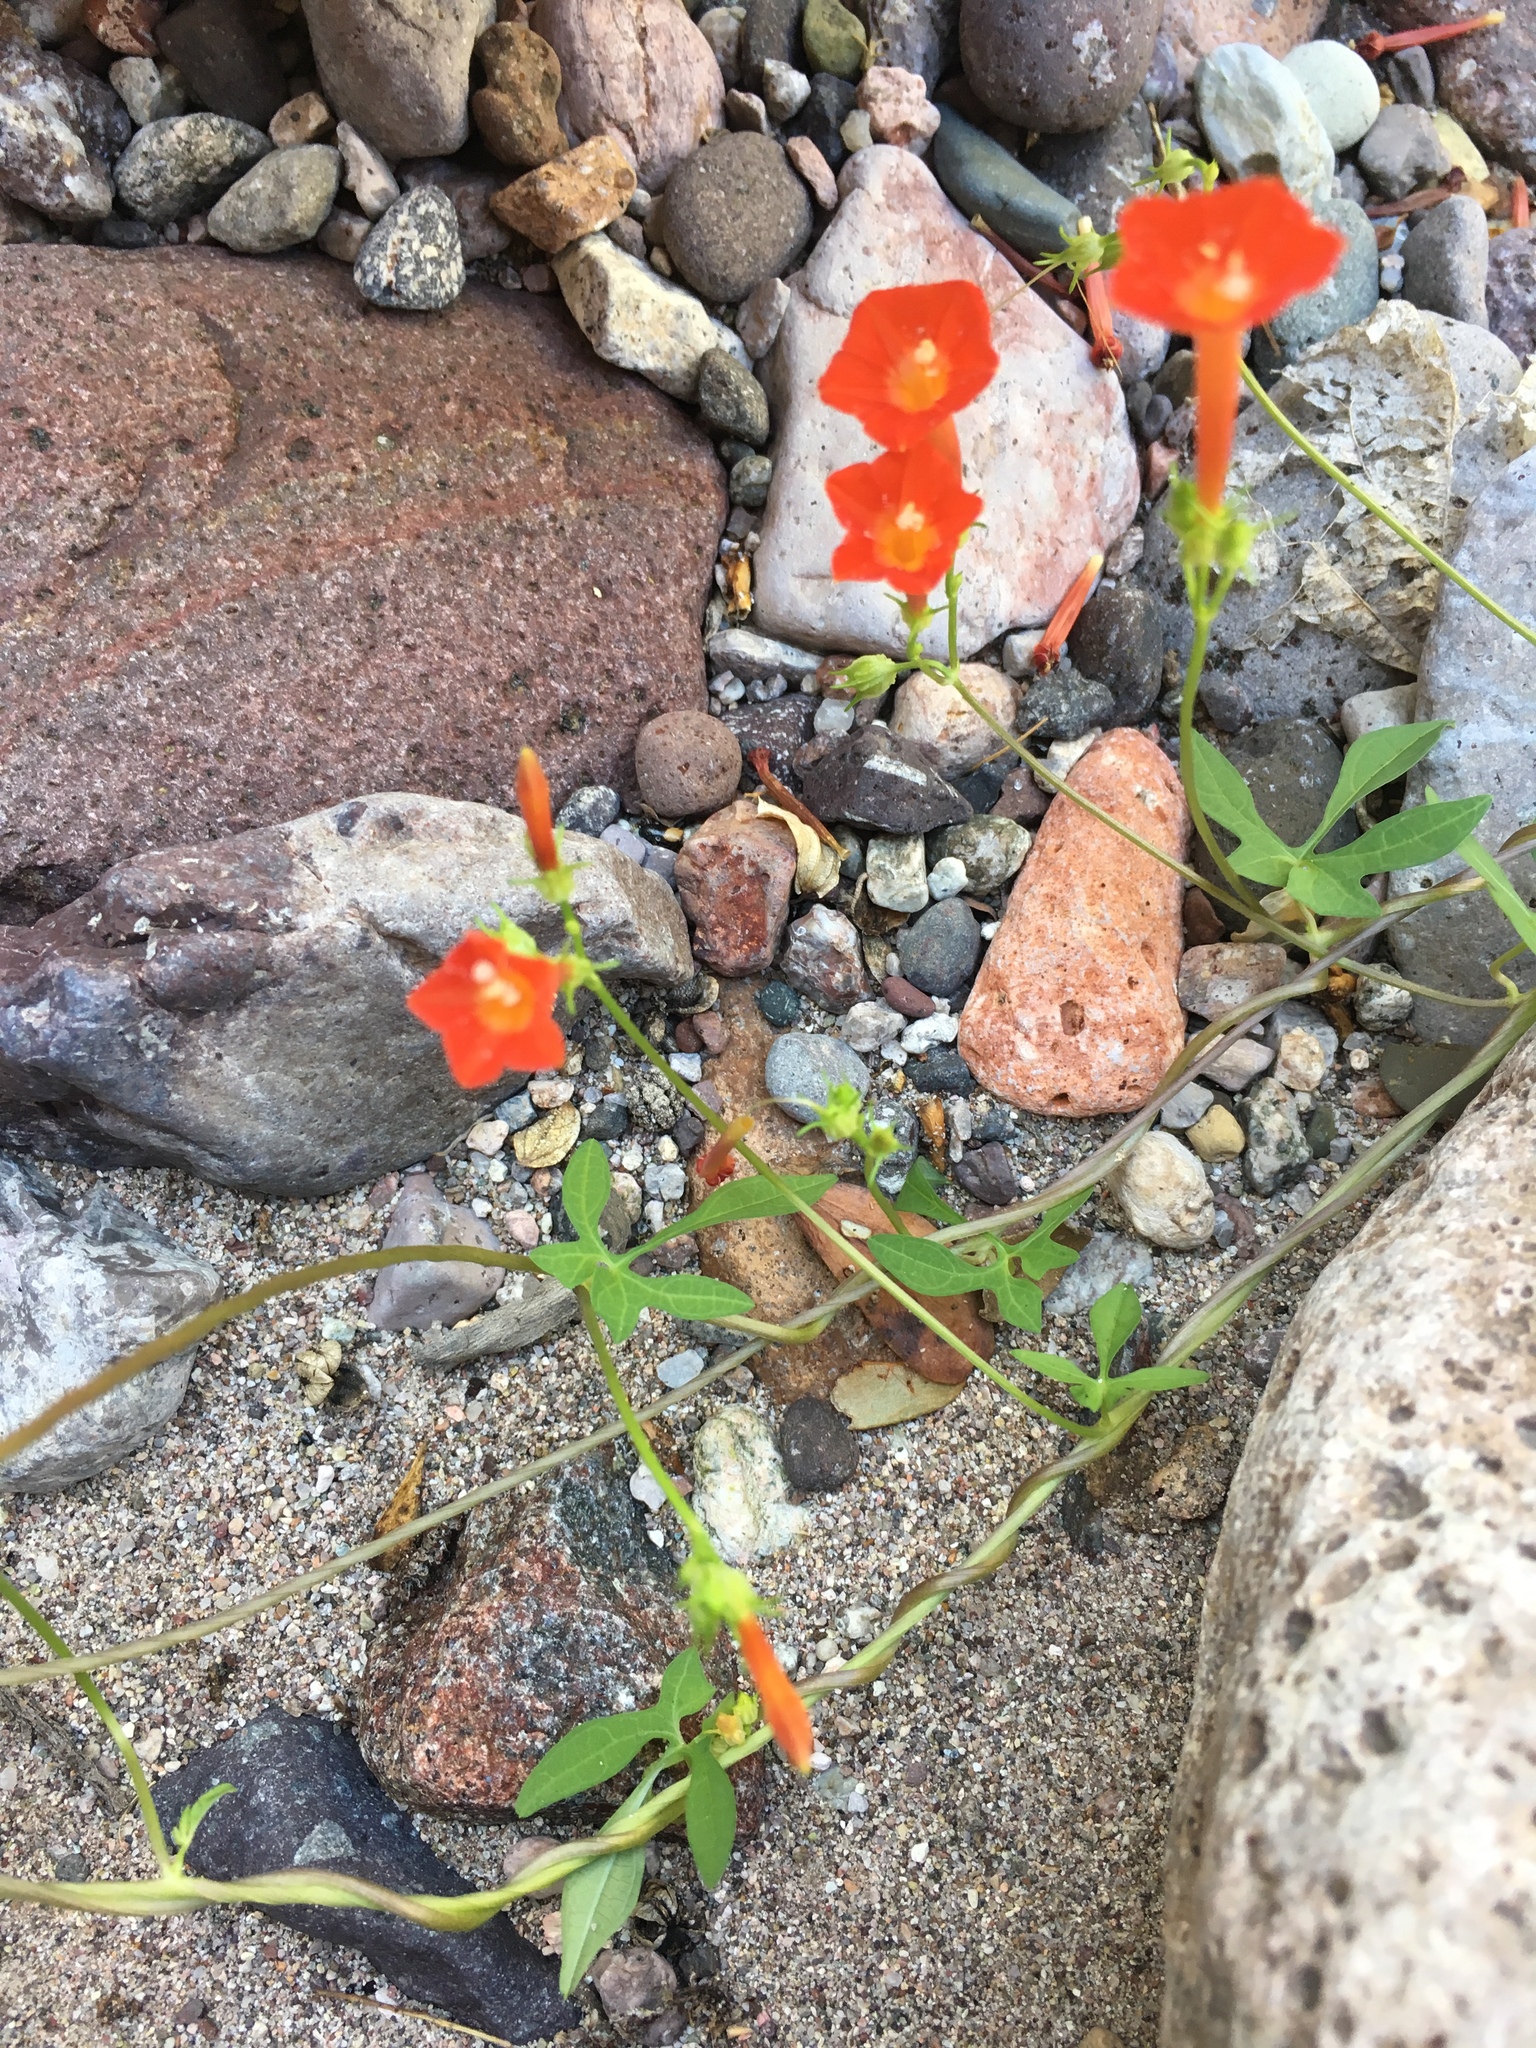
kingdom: Plantae
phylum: Tracheophyta
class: Magnoliopsida
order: Solanales
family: Convolvulaceae
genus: Ipomoea
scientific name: Ipomoea cristulata
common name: Trans-pecos morning-glory
